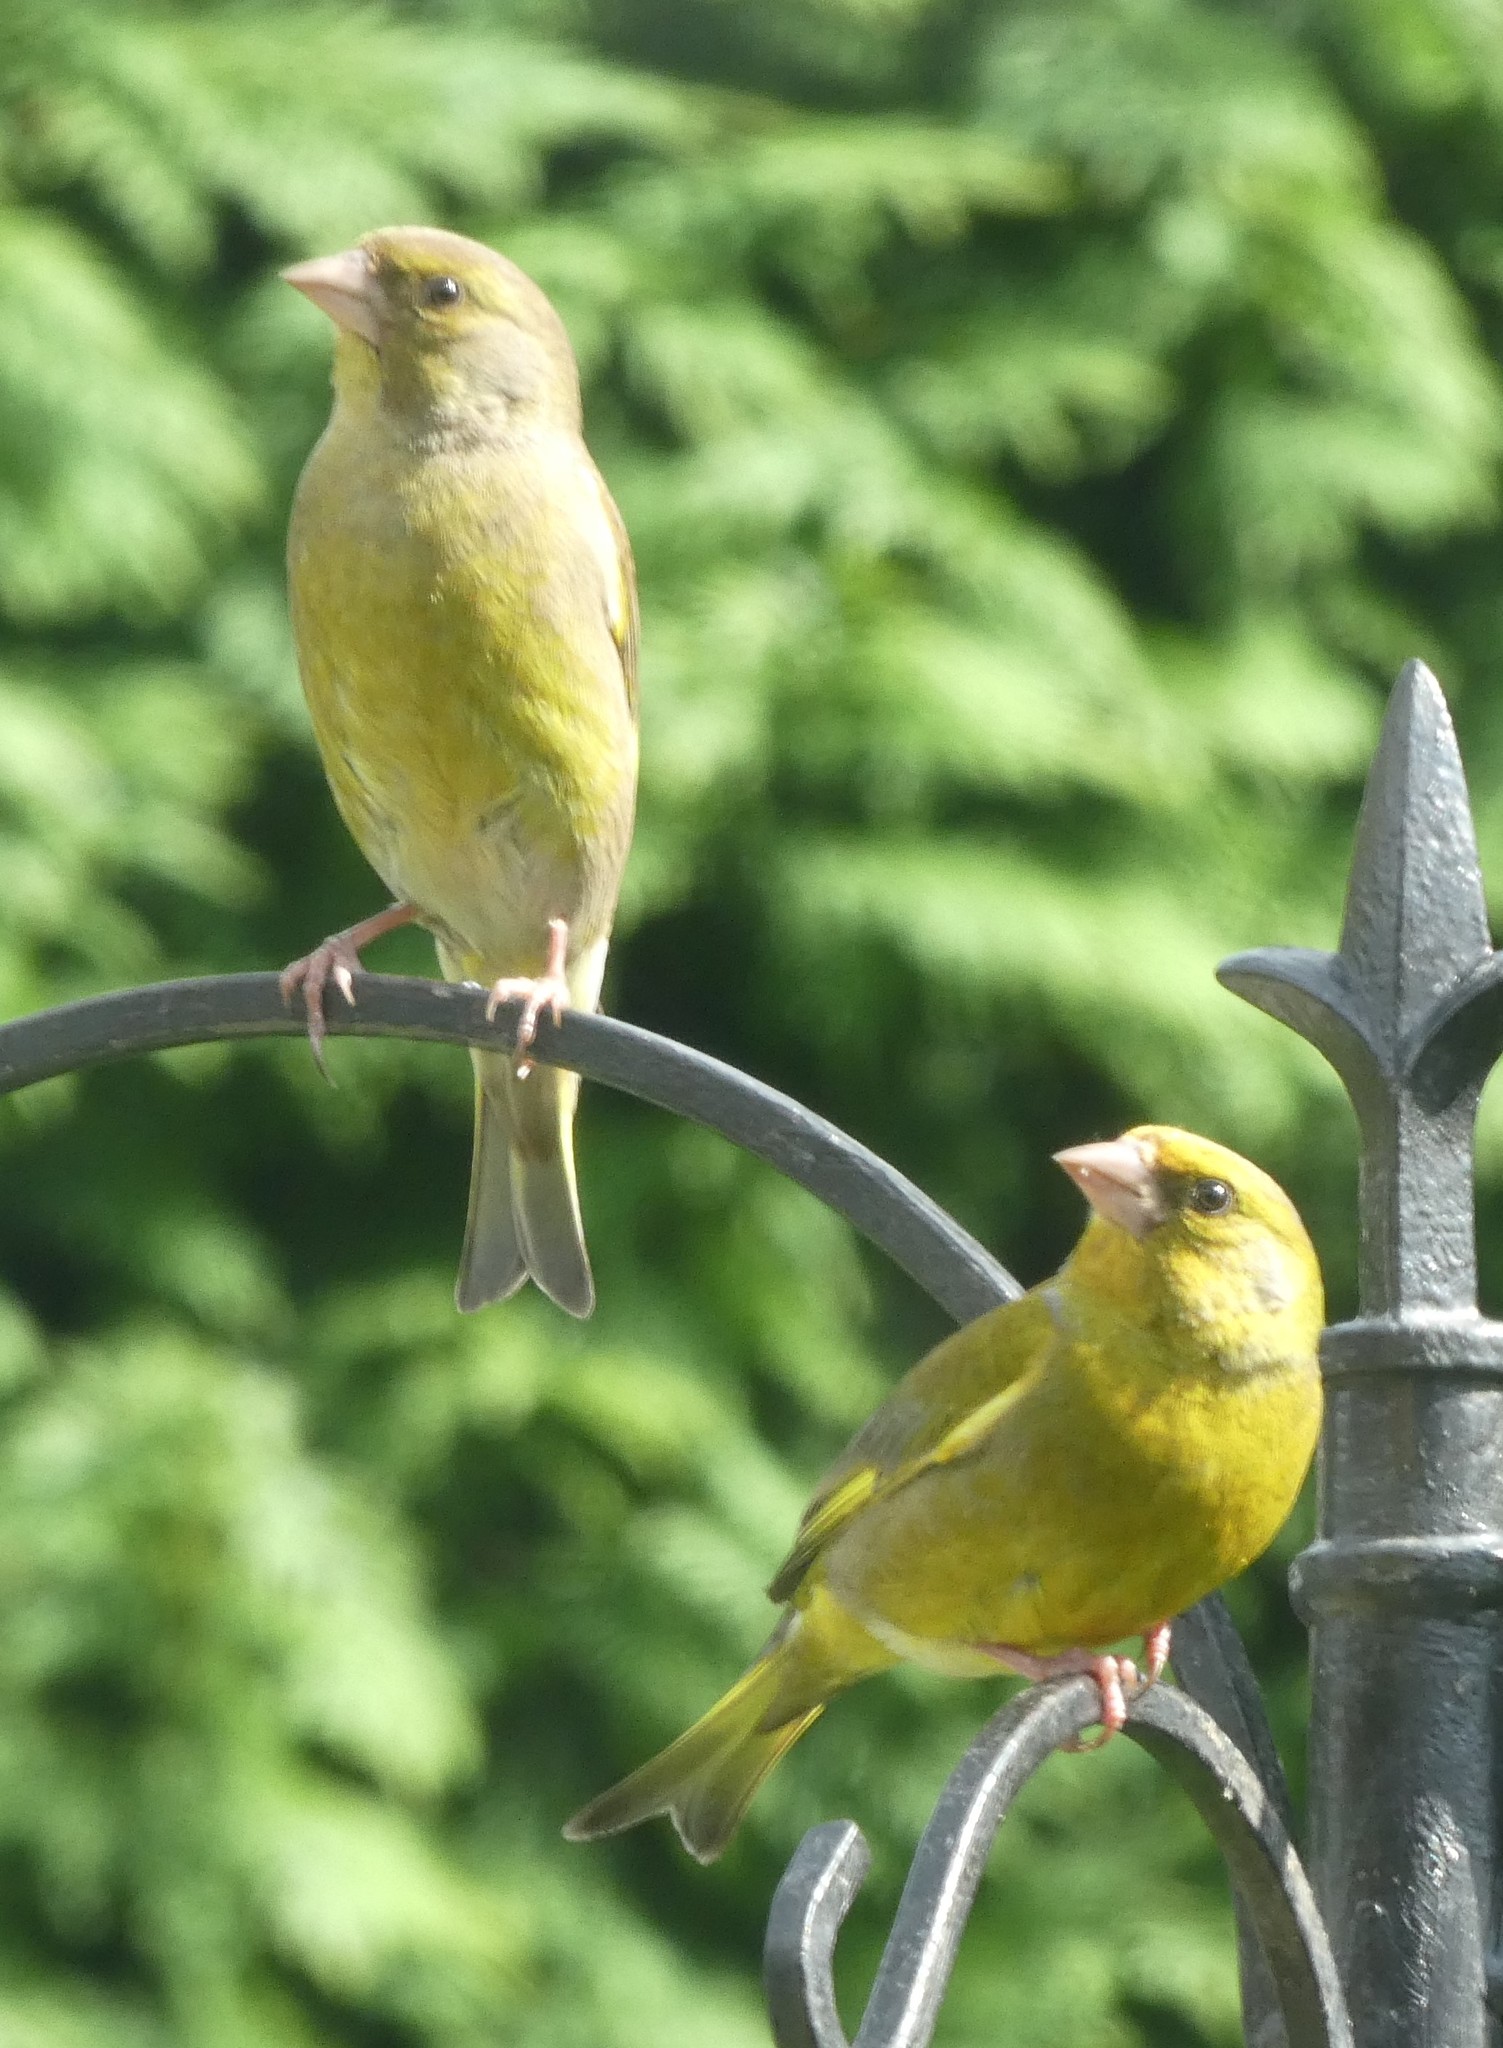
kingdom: Plantae
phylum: Tracheophyta
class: Liliopsida
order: Poales
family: Poaceae
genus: Chloris
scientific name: Chloris chloris
